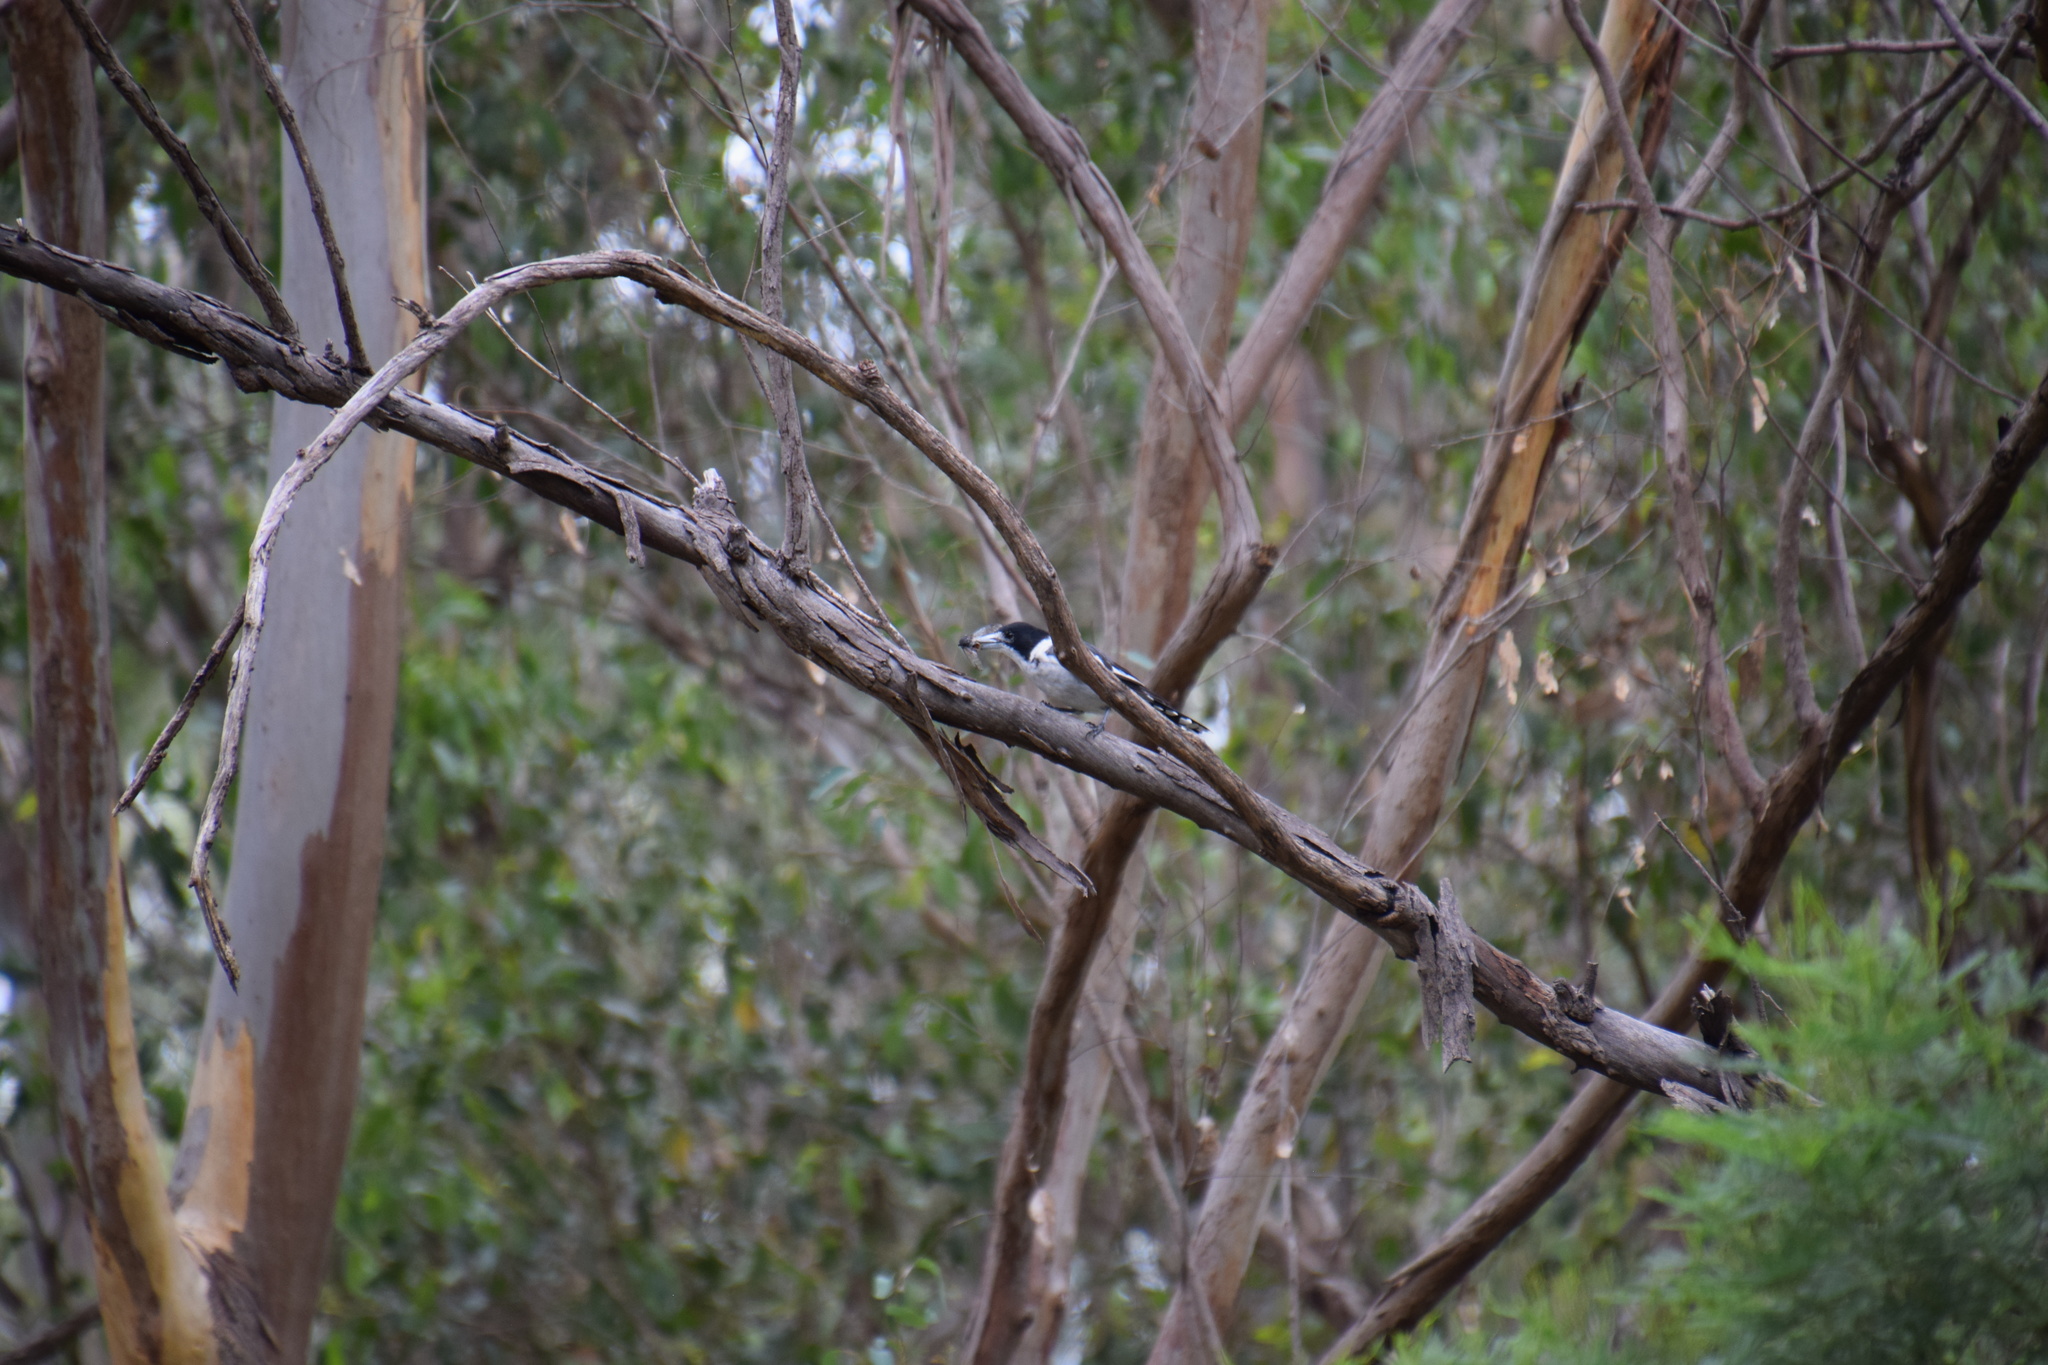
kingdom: Animalia
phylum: Chordata
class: Aves
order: Passeriformes
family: Cracticidae
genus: Cracticus
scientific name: Cracticus torquatus
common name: Grey butcherbird
